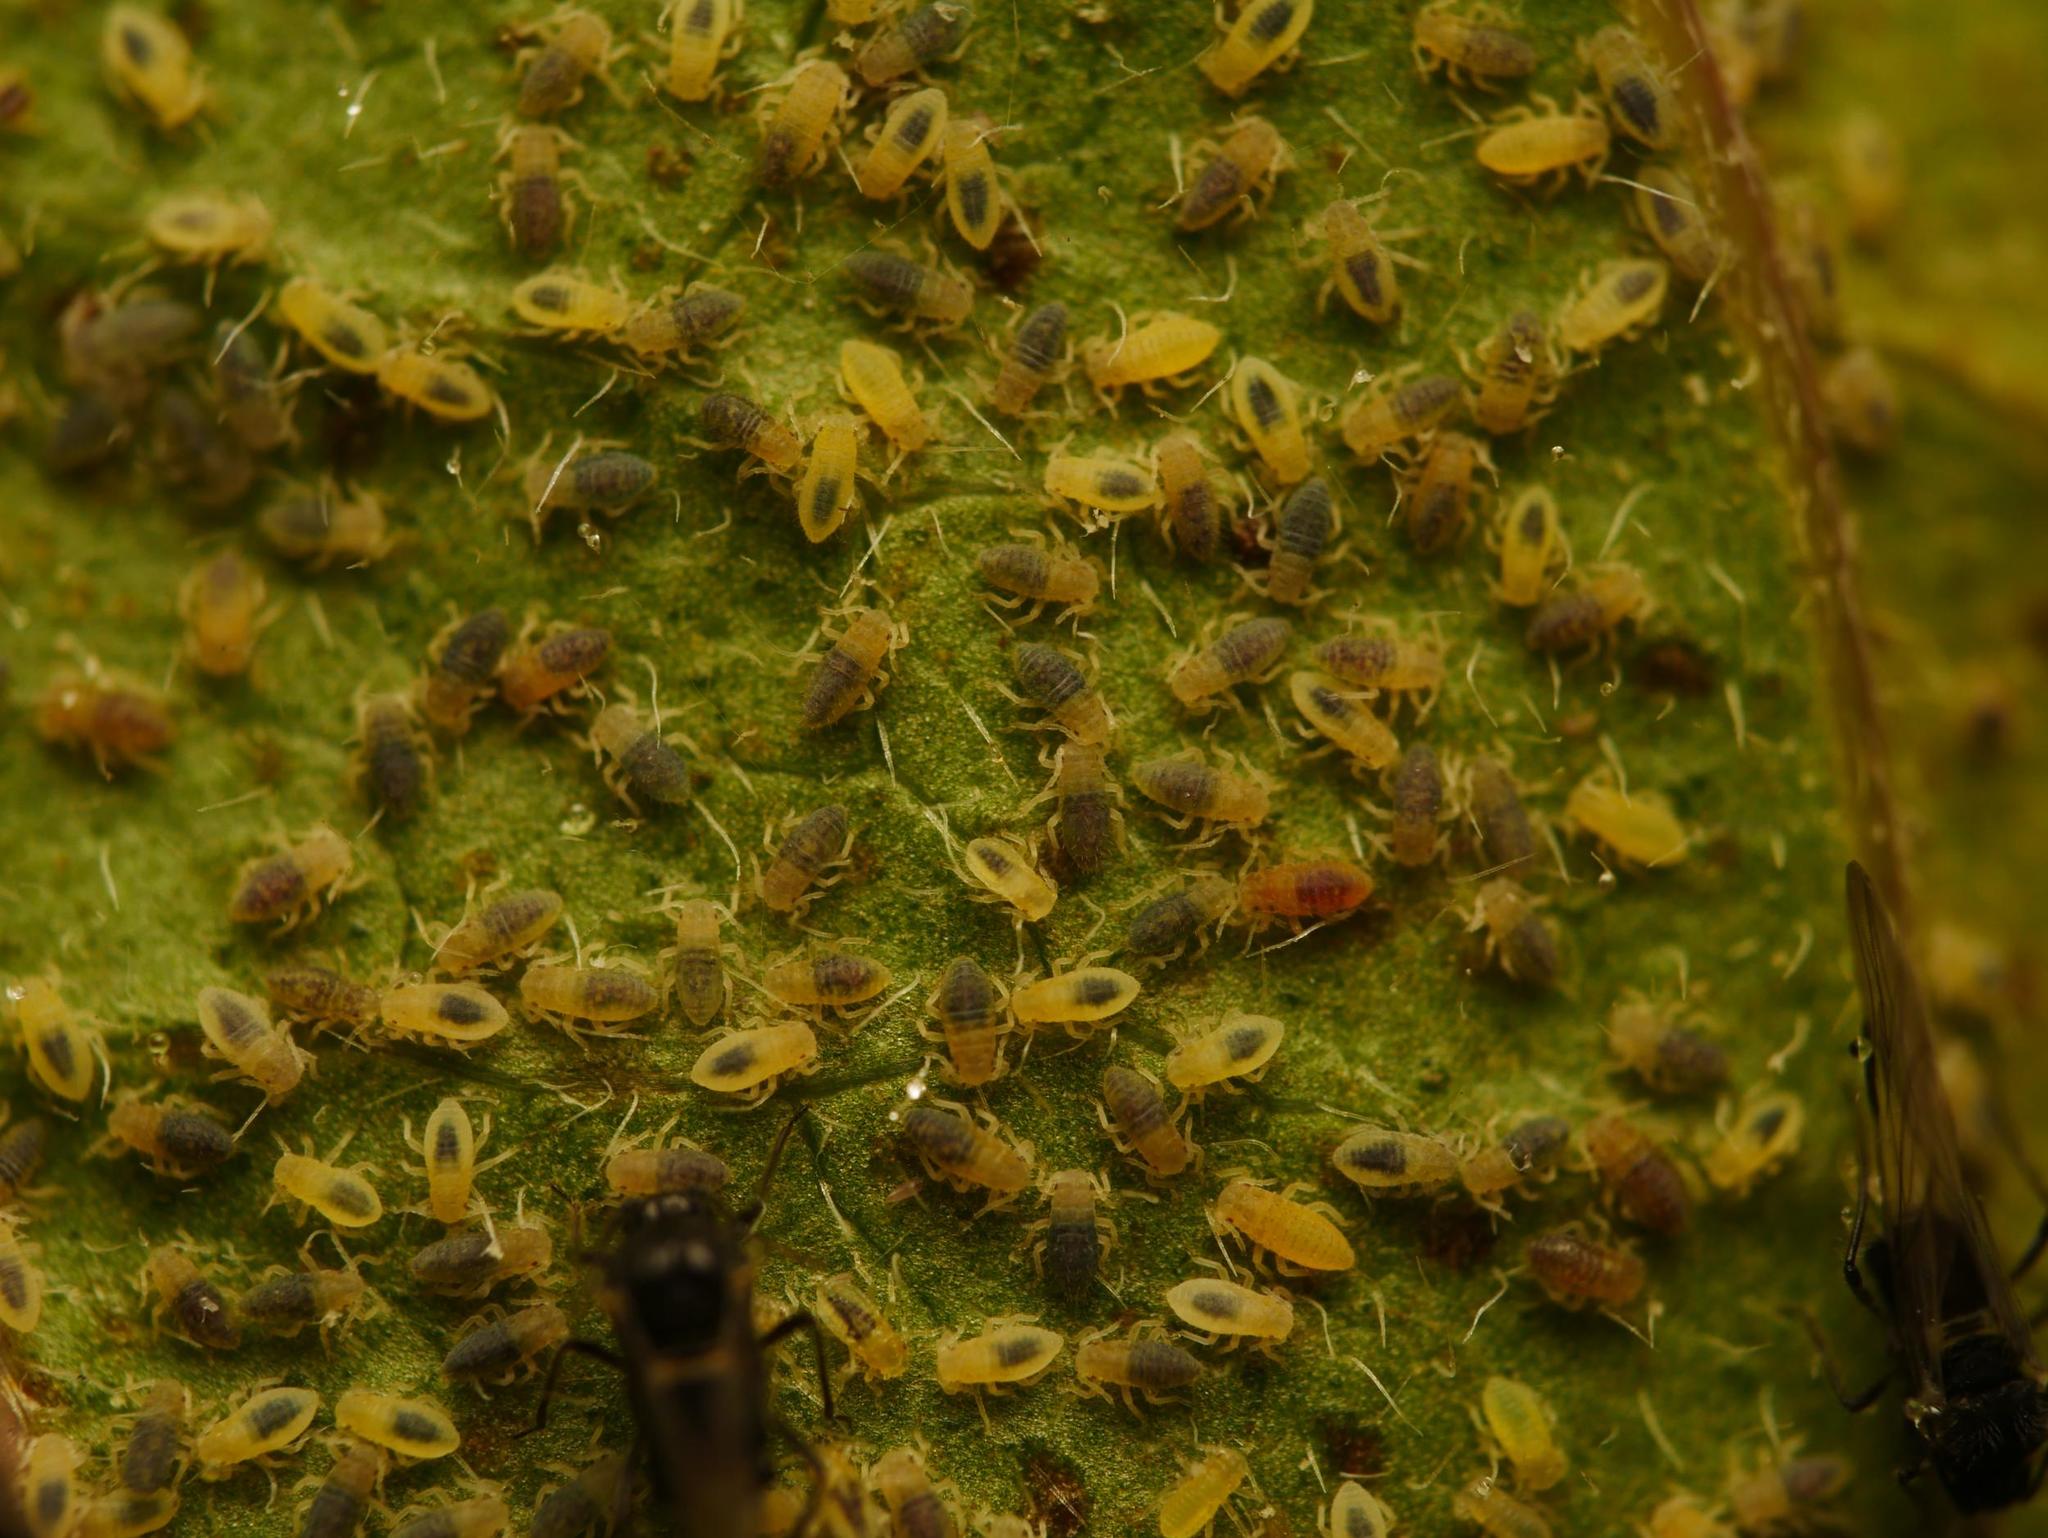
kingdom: Animalia
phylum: Arthropoda
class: Insecta
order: Hemiptera
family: Aphididae
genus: Anoecia
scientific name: Anoecia
